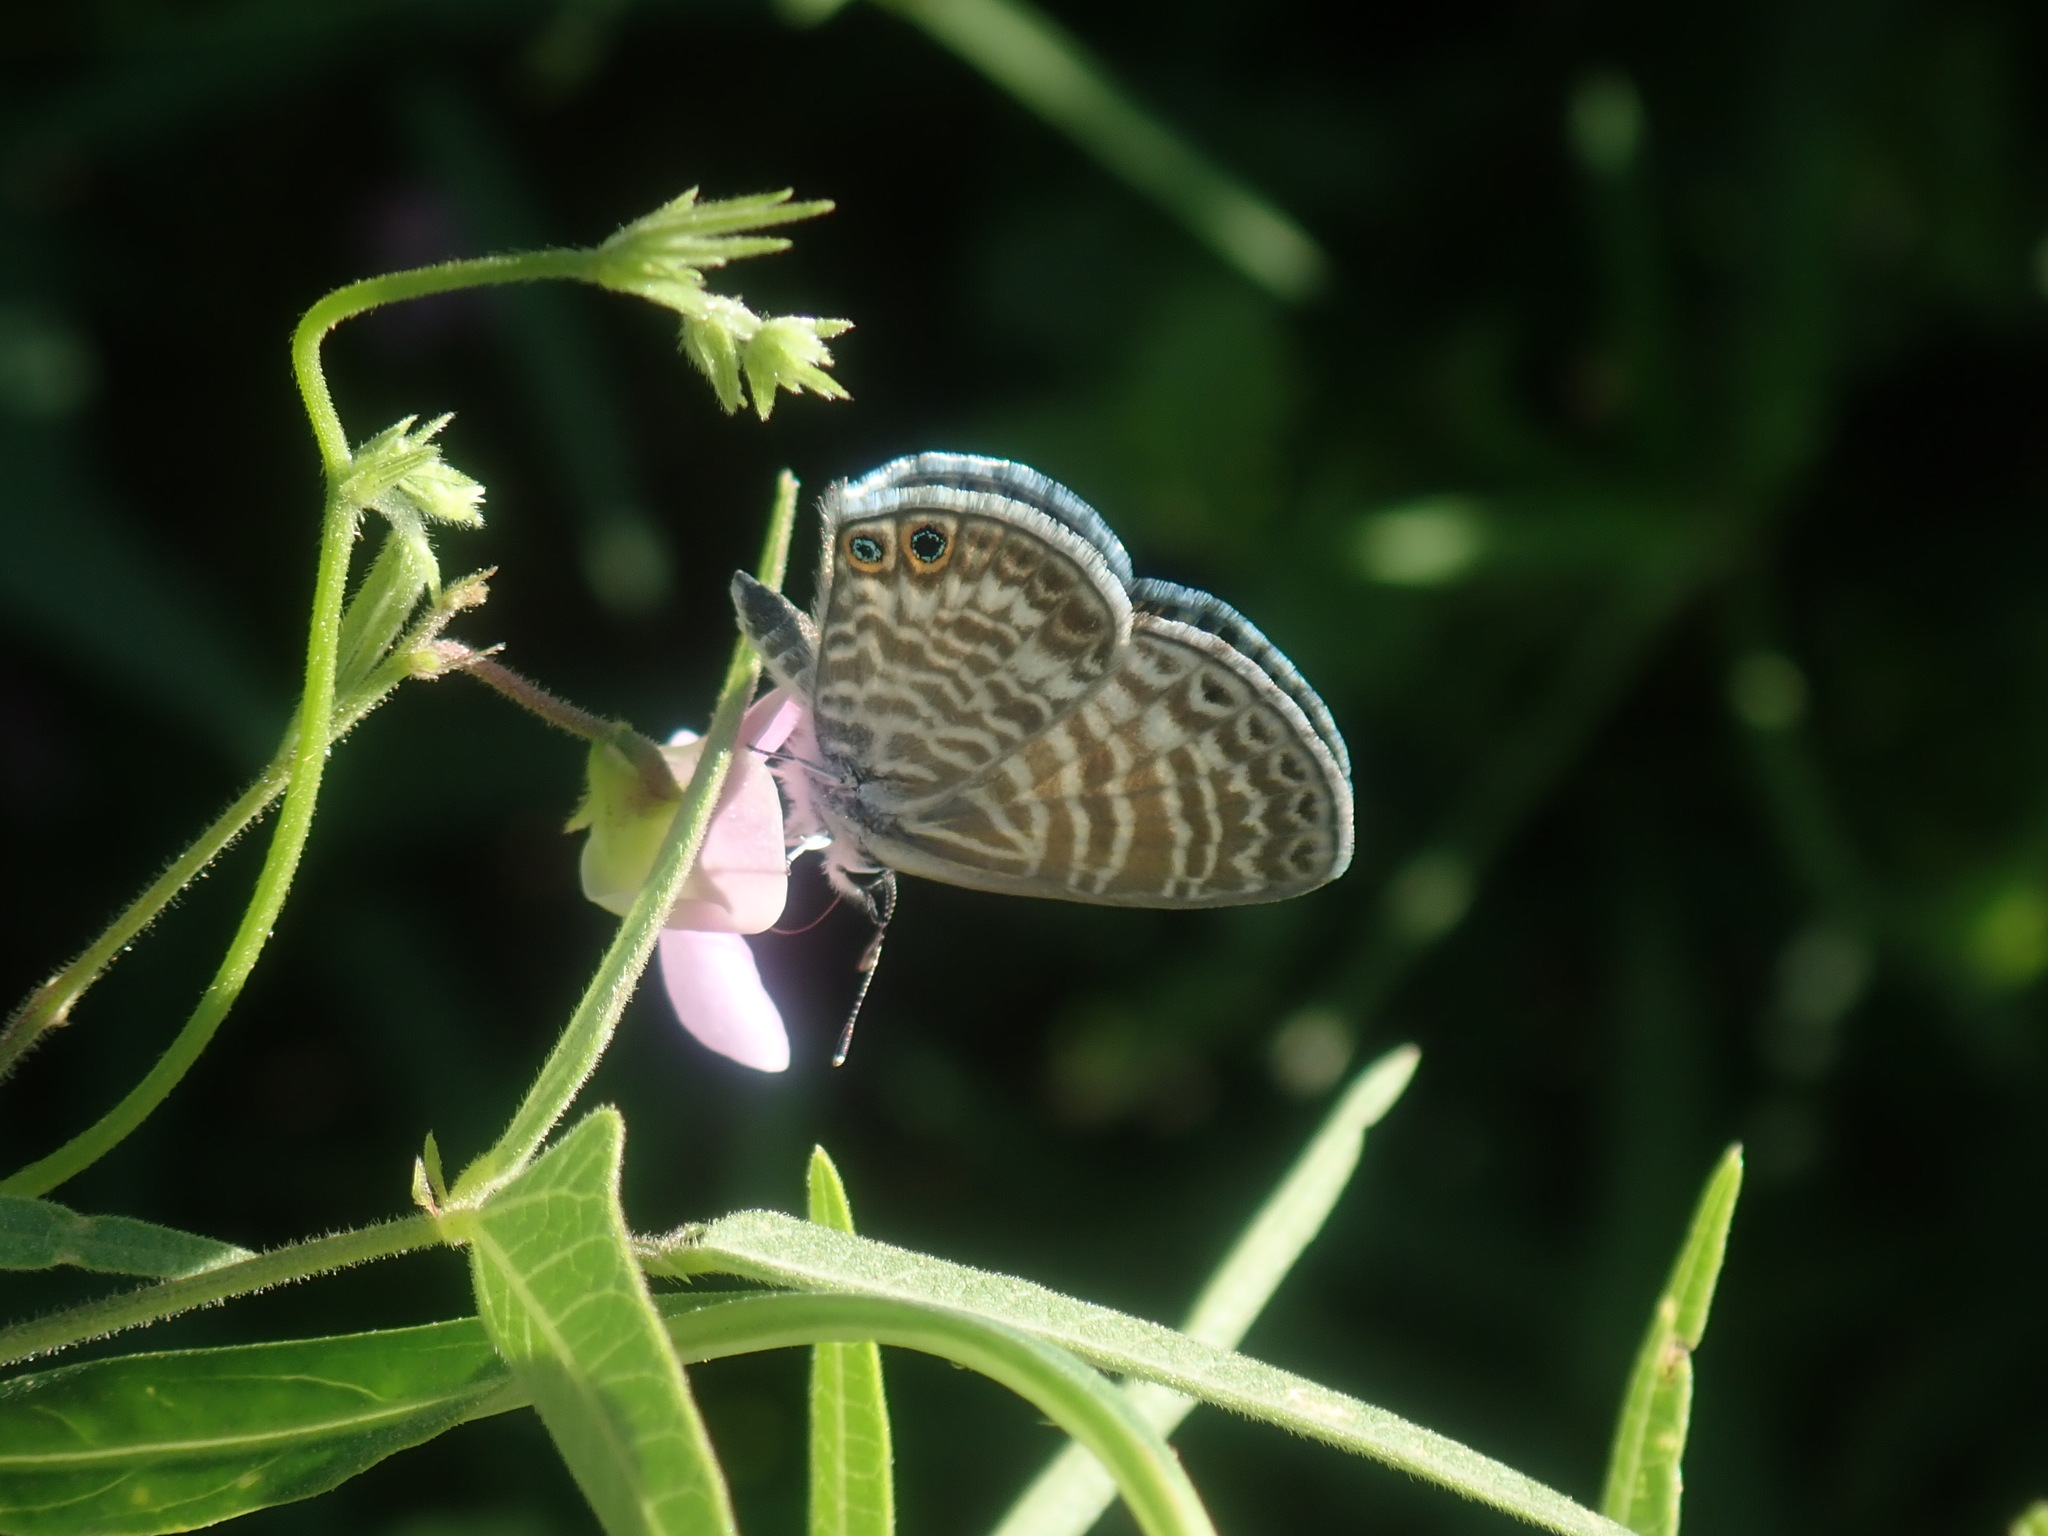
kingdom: Animalia
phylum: Arthropoda
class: Insecta
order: Lepidoptera
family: Lycaenidae
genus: Leptotes
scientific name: Leptotes marina
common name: Marine blue
